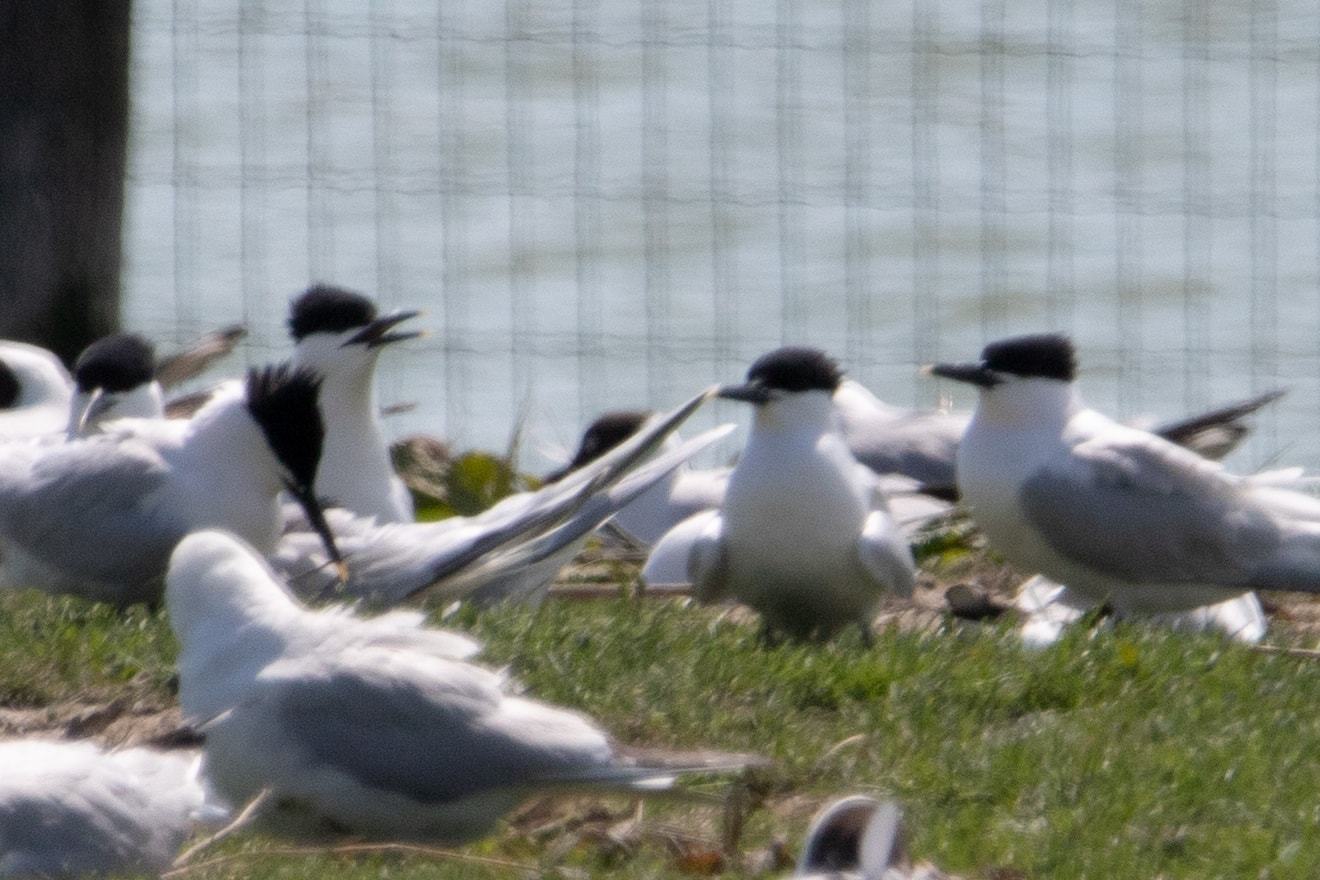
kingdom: Animalia
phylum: Chordata
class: Aves
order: Charadriiformes
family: Laridae
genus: Thalasseus
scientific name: Thalasseus sandvicensis
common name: Sandwich tern
